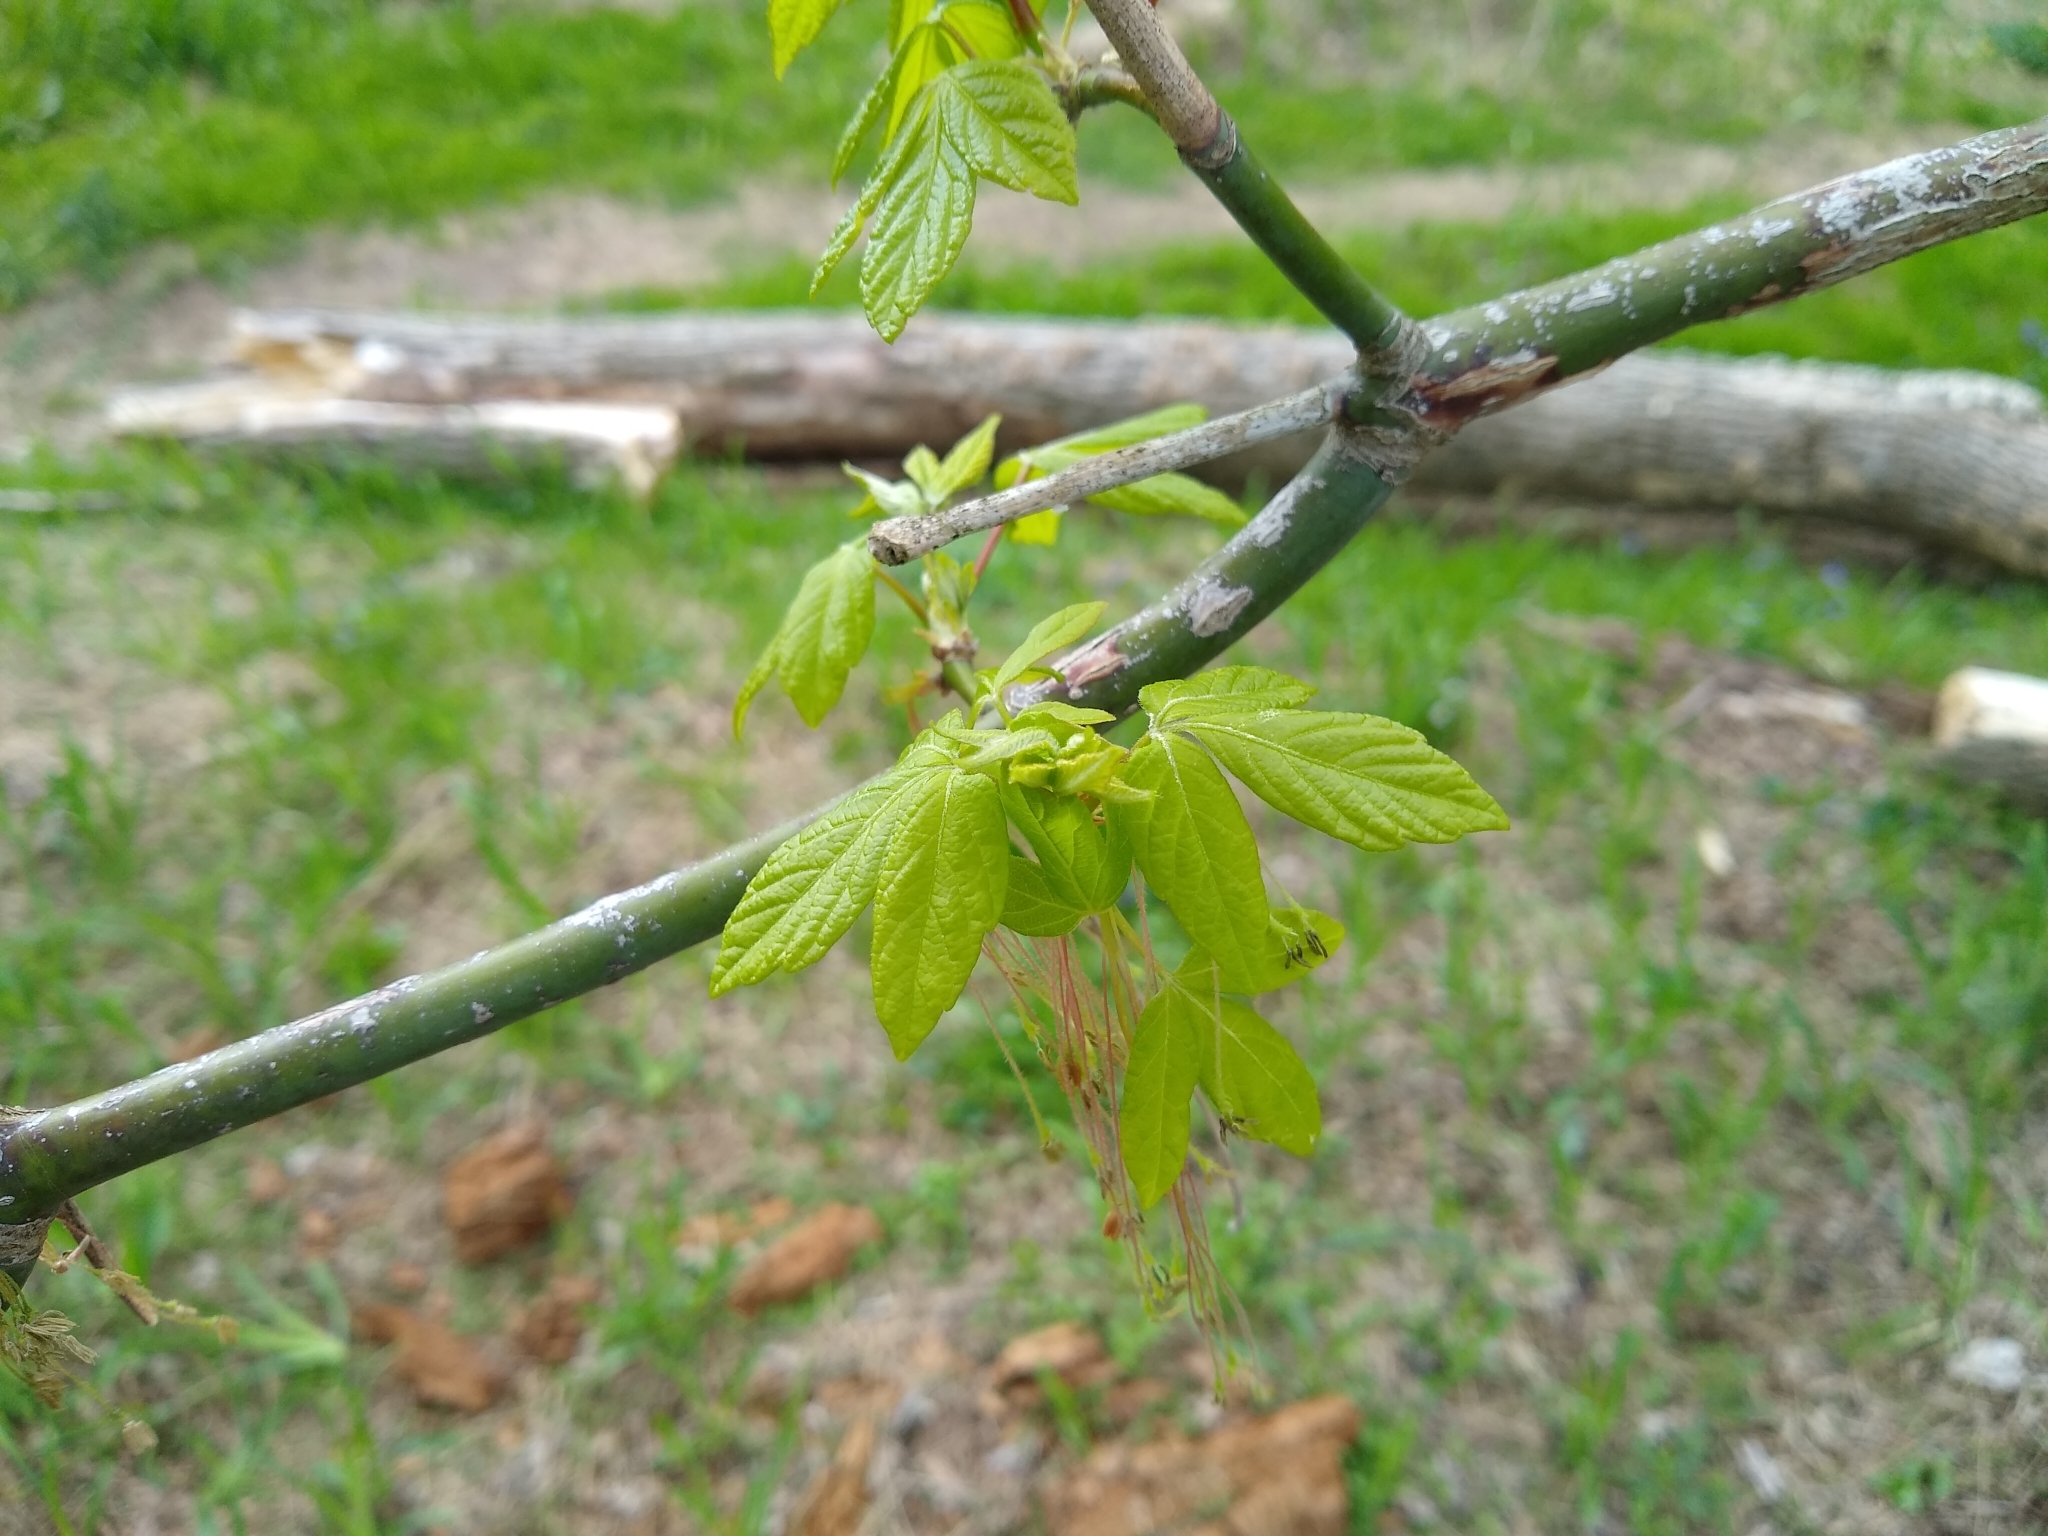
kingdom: Plantae
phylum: Tracheophyta
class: Magnoliopsida
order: Sapindales
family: Sapindaceae
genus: Acer
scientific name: Acer negundo
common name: Ashleaf maple
